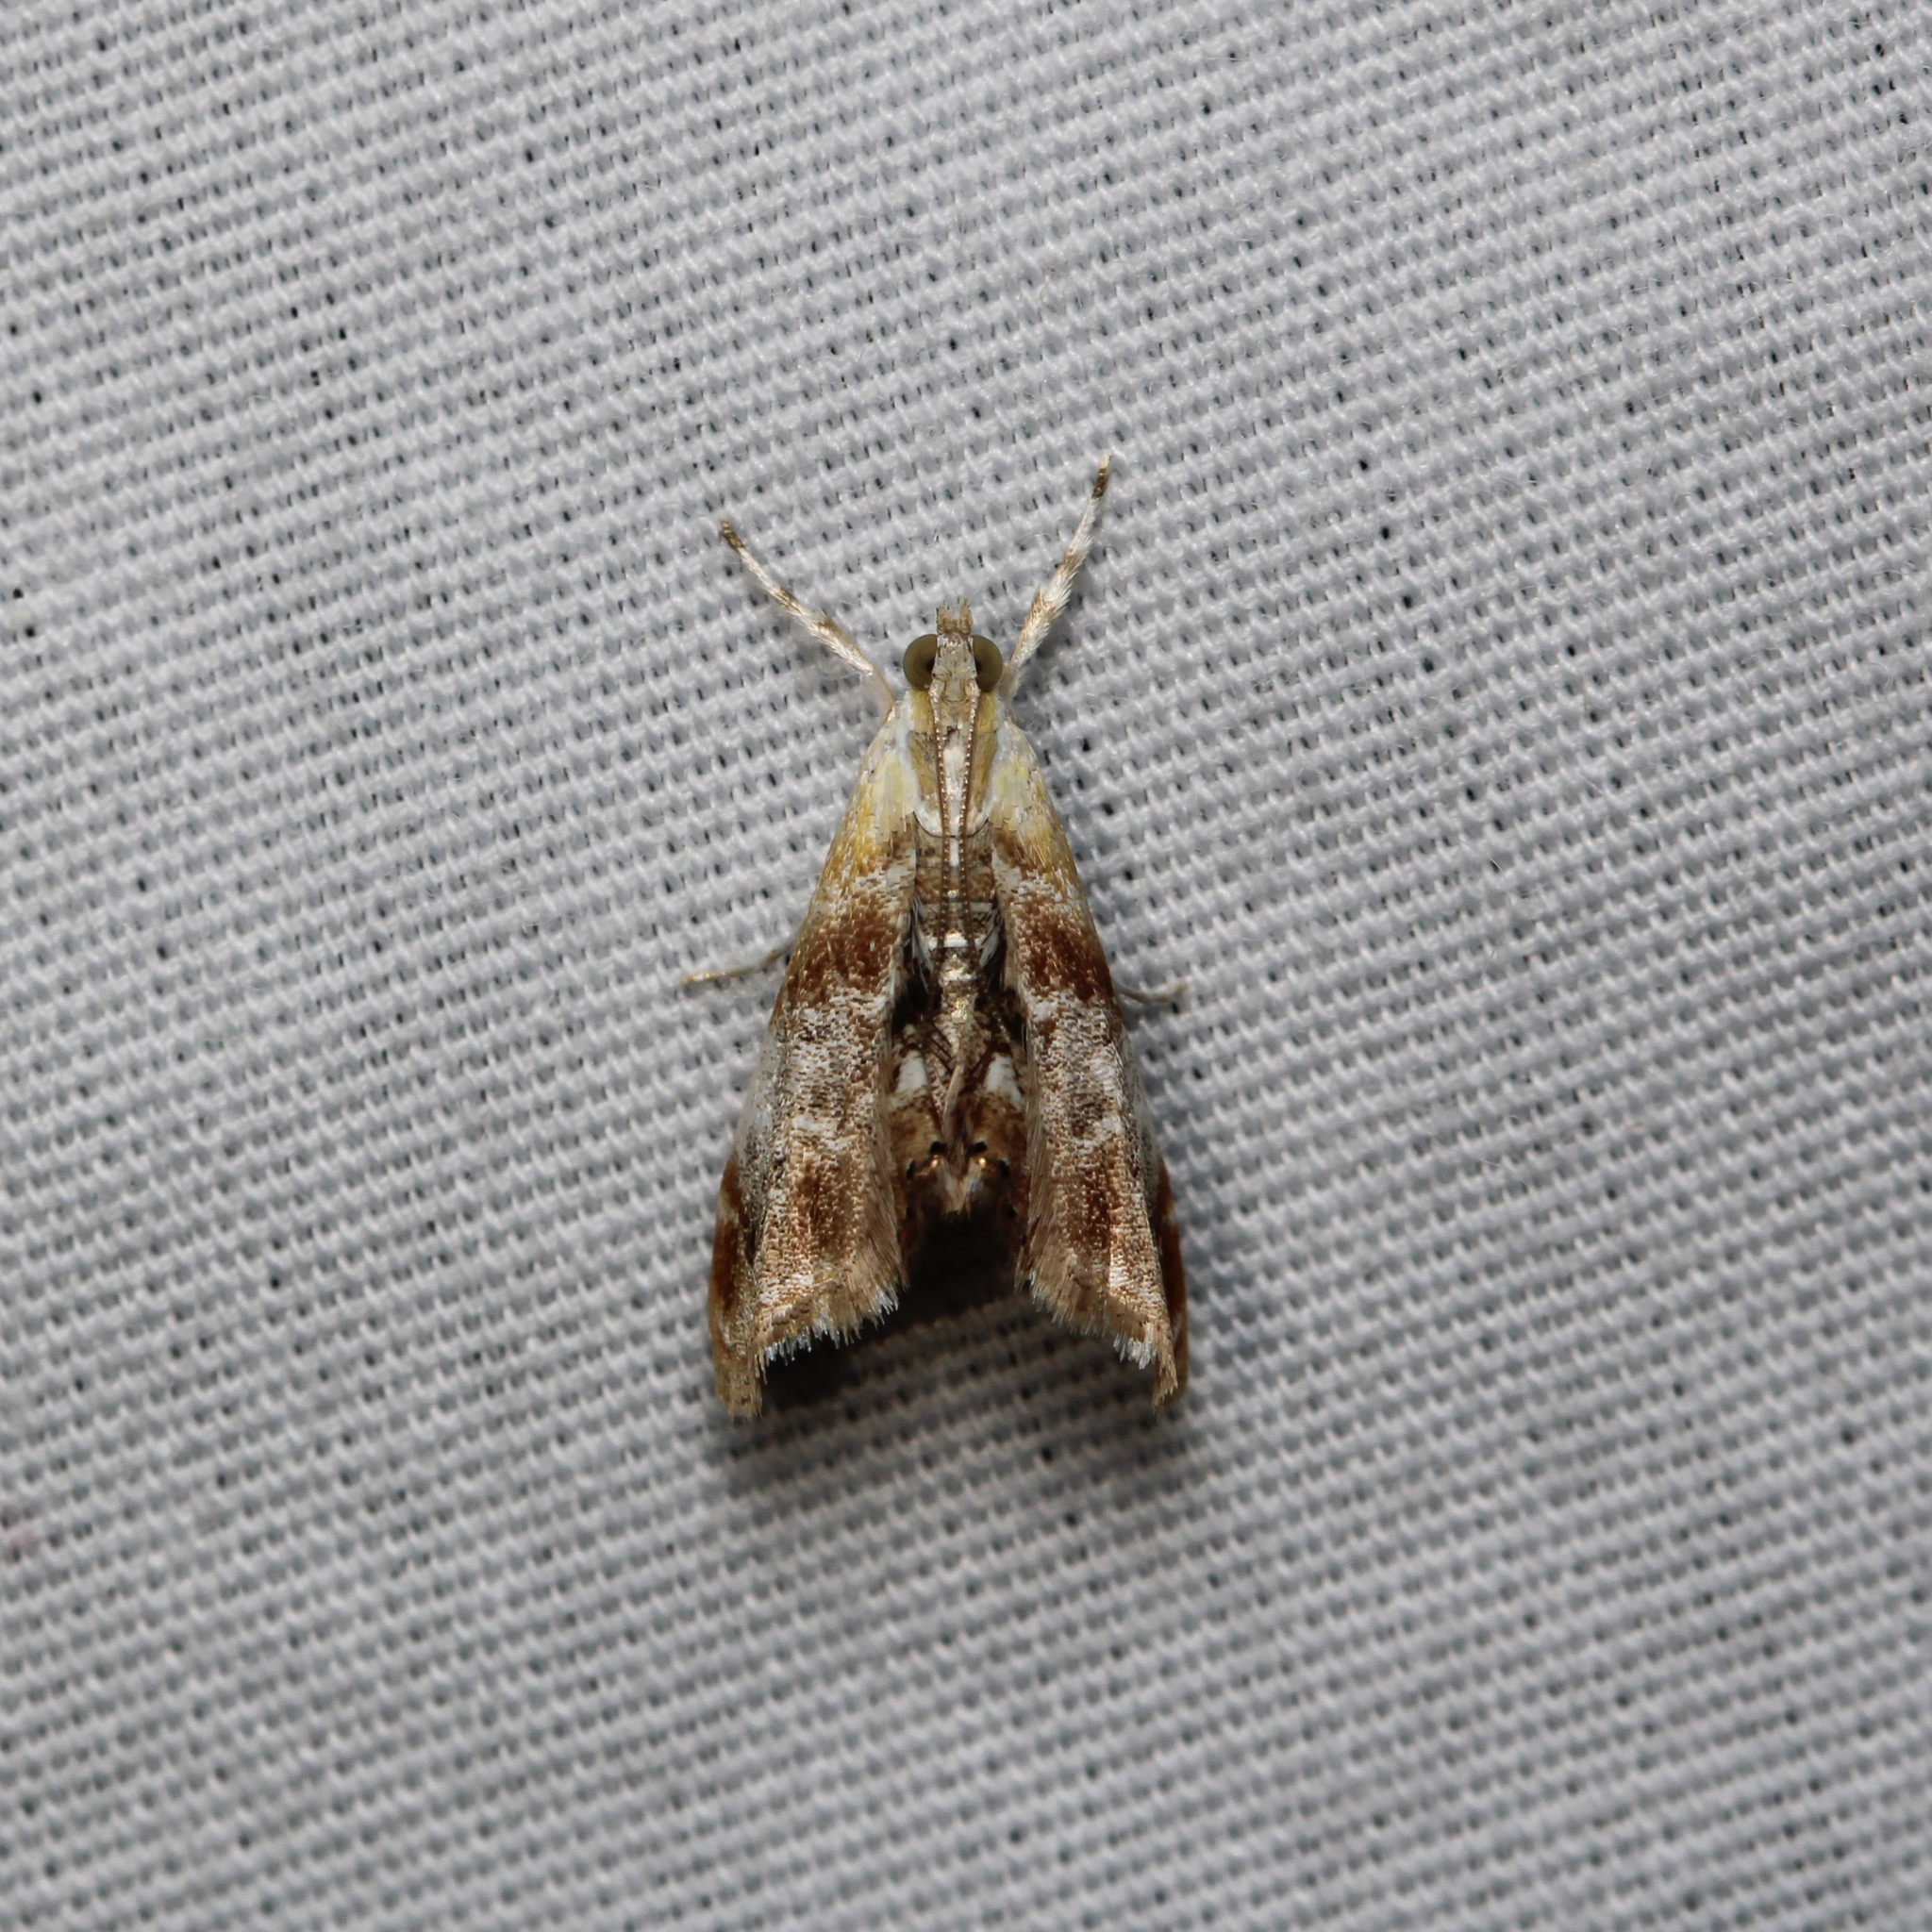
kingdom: Animalia
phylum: Arthropoda
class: Insecta
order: Lepidoptera
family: Crambidae
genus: Dicymolomia
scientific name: Dicymolomia julianalis
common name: Julia's dicymolomia moth
